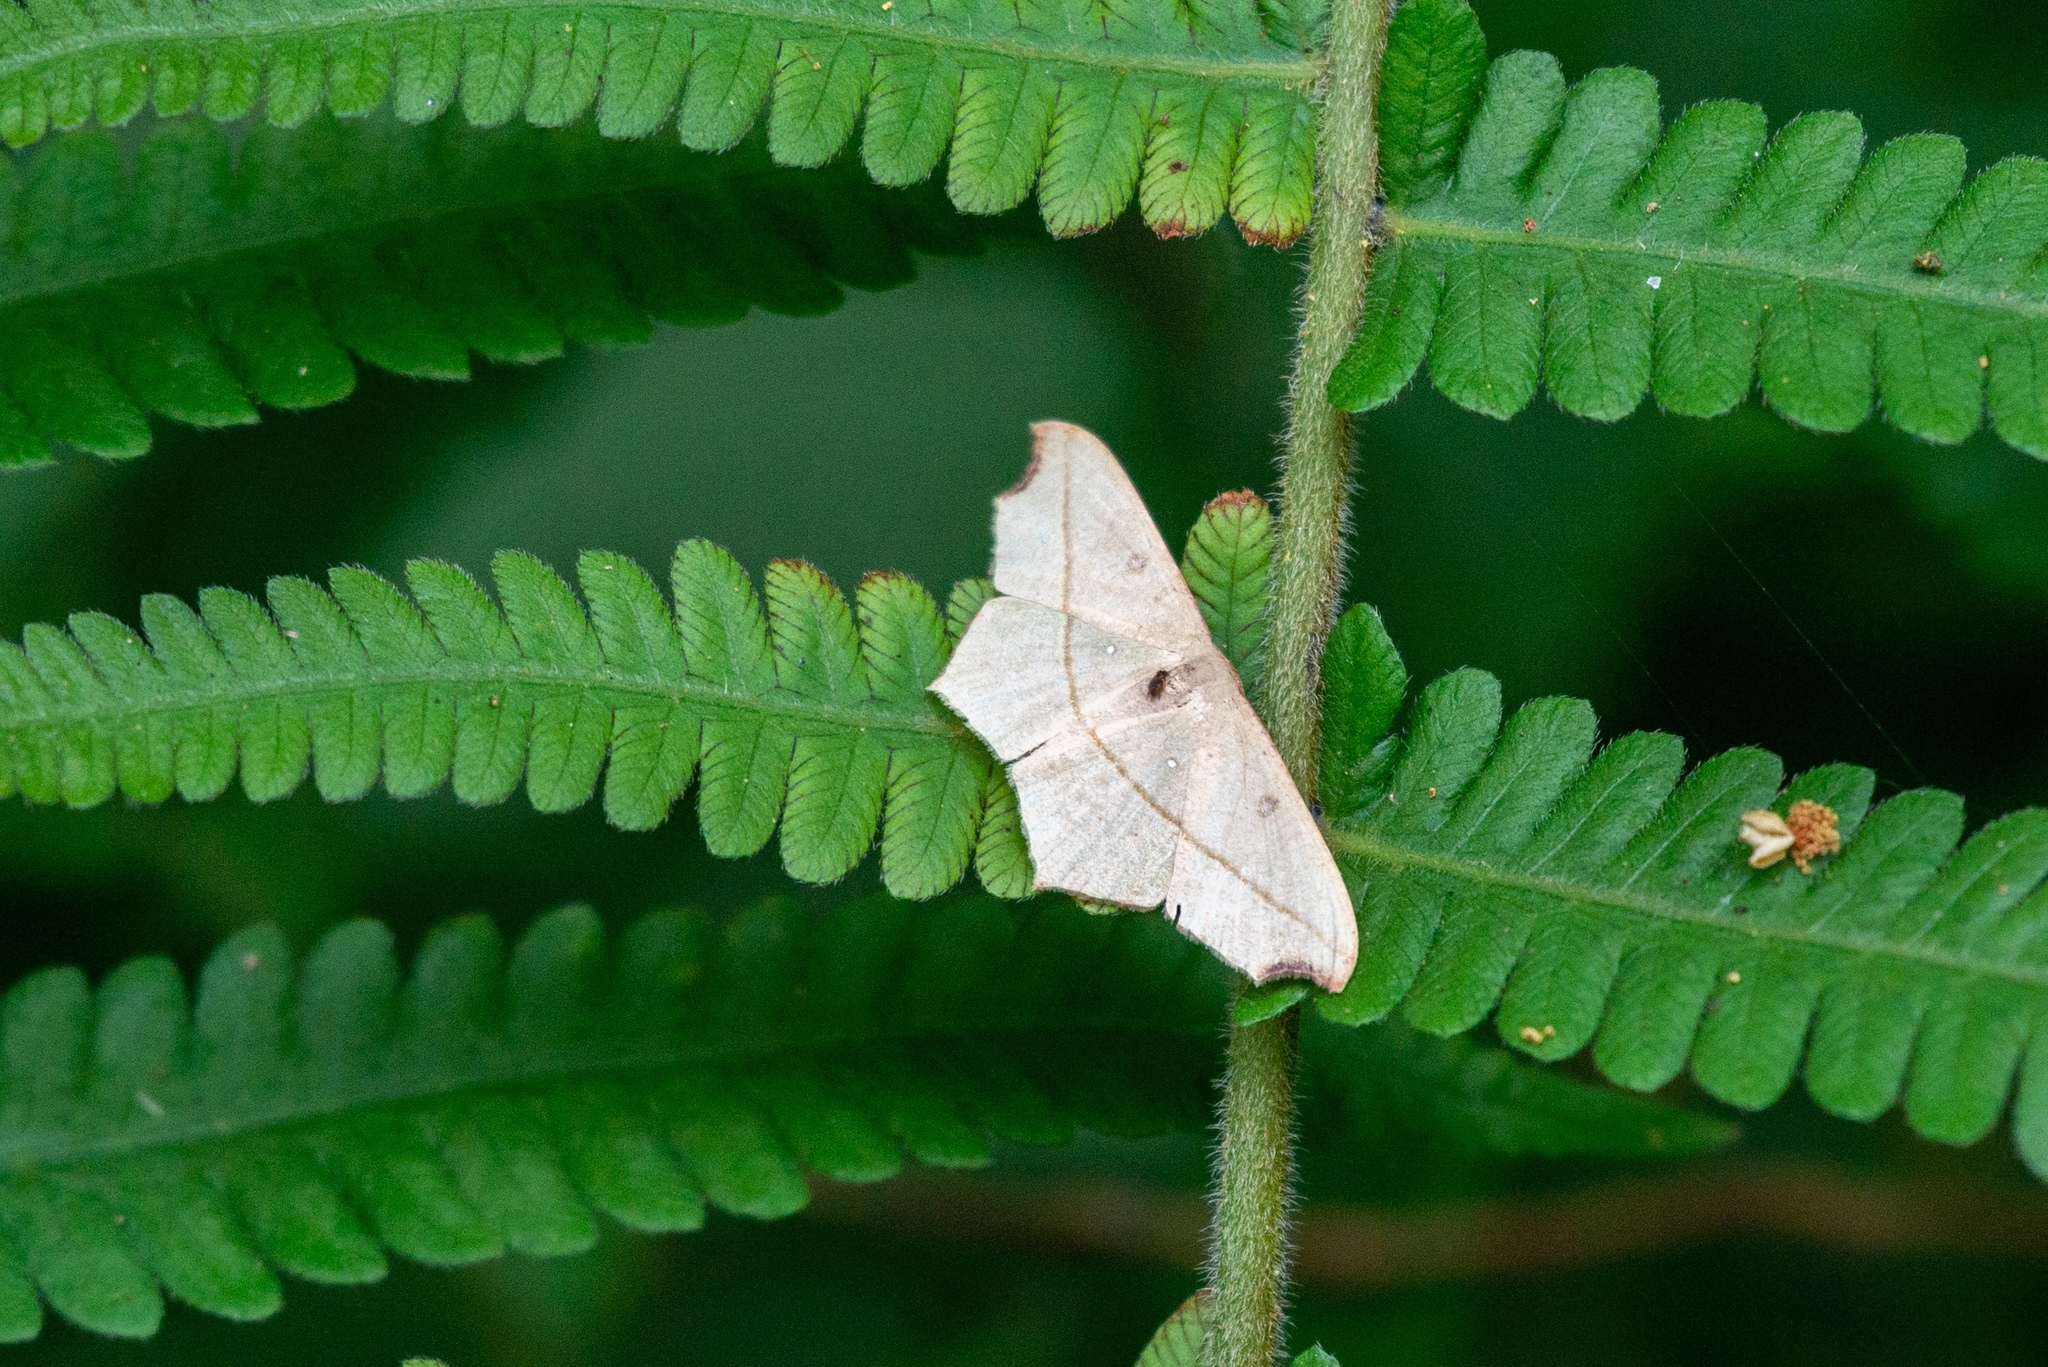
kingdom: Animalia
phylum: Arthropoda
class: Insecta
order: Lepidoptera
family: Geometridae
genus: Traminda
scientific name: Traminda aventiaria
